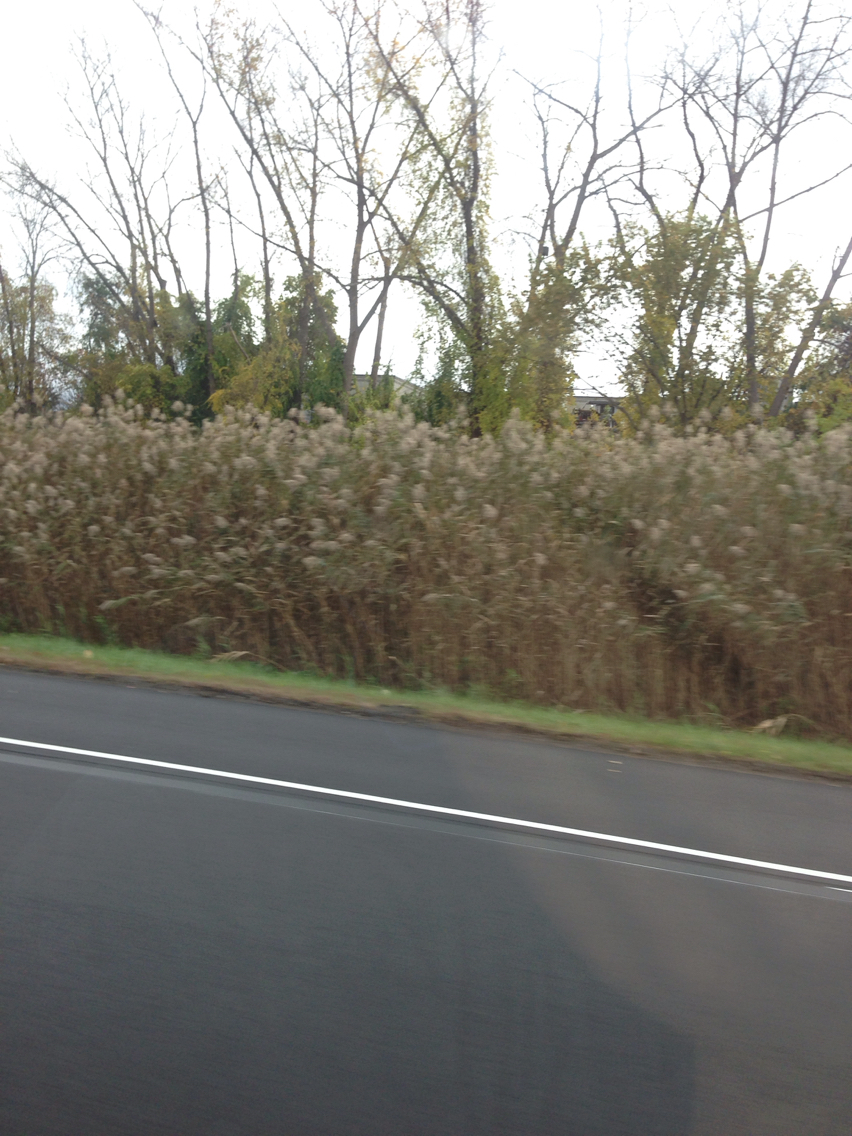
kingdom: Plantae
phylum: Tracheophyta
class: Liliopsida
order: Poales
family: Poaceae
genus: Phragmites
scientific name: Phragmites australis
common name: Common reed
